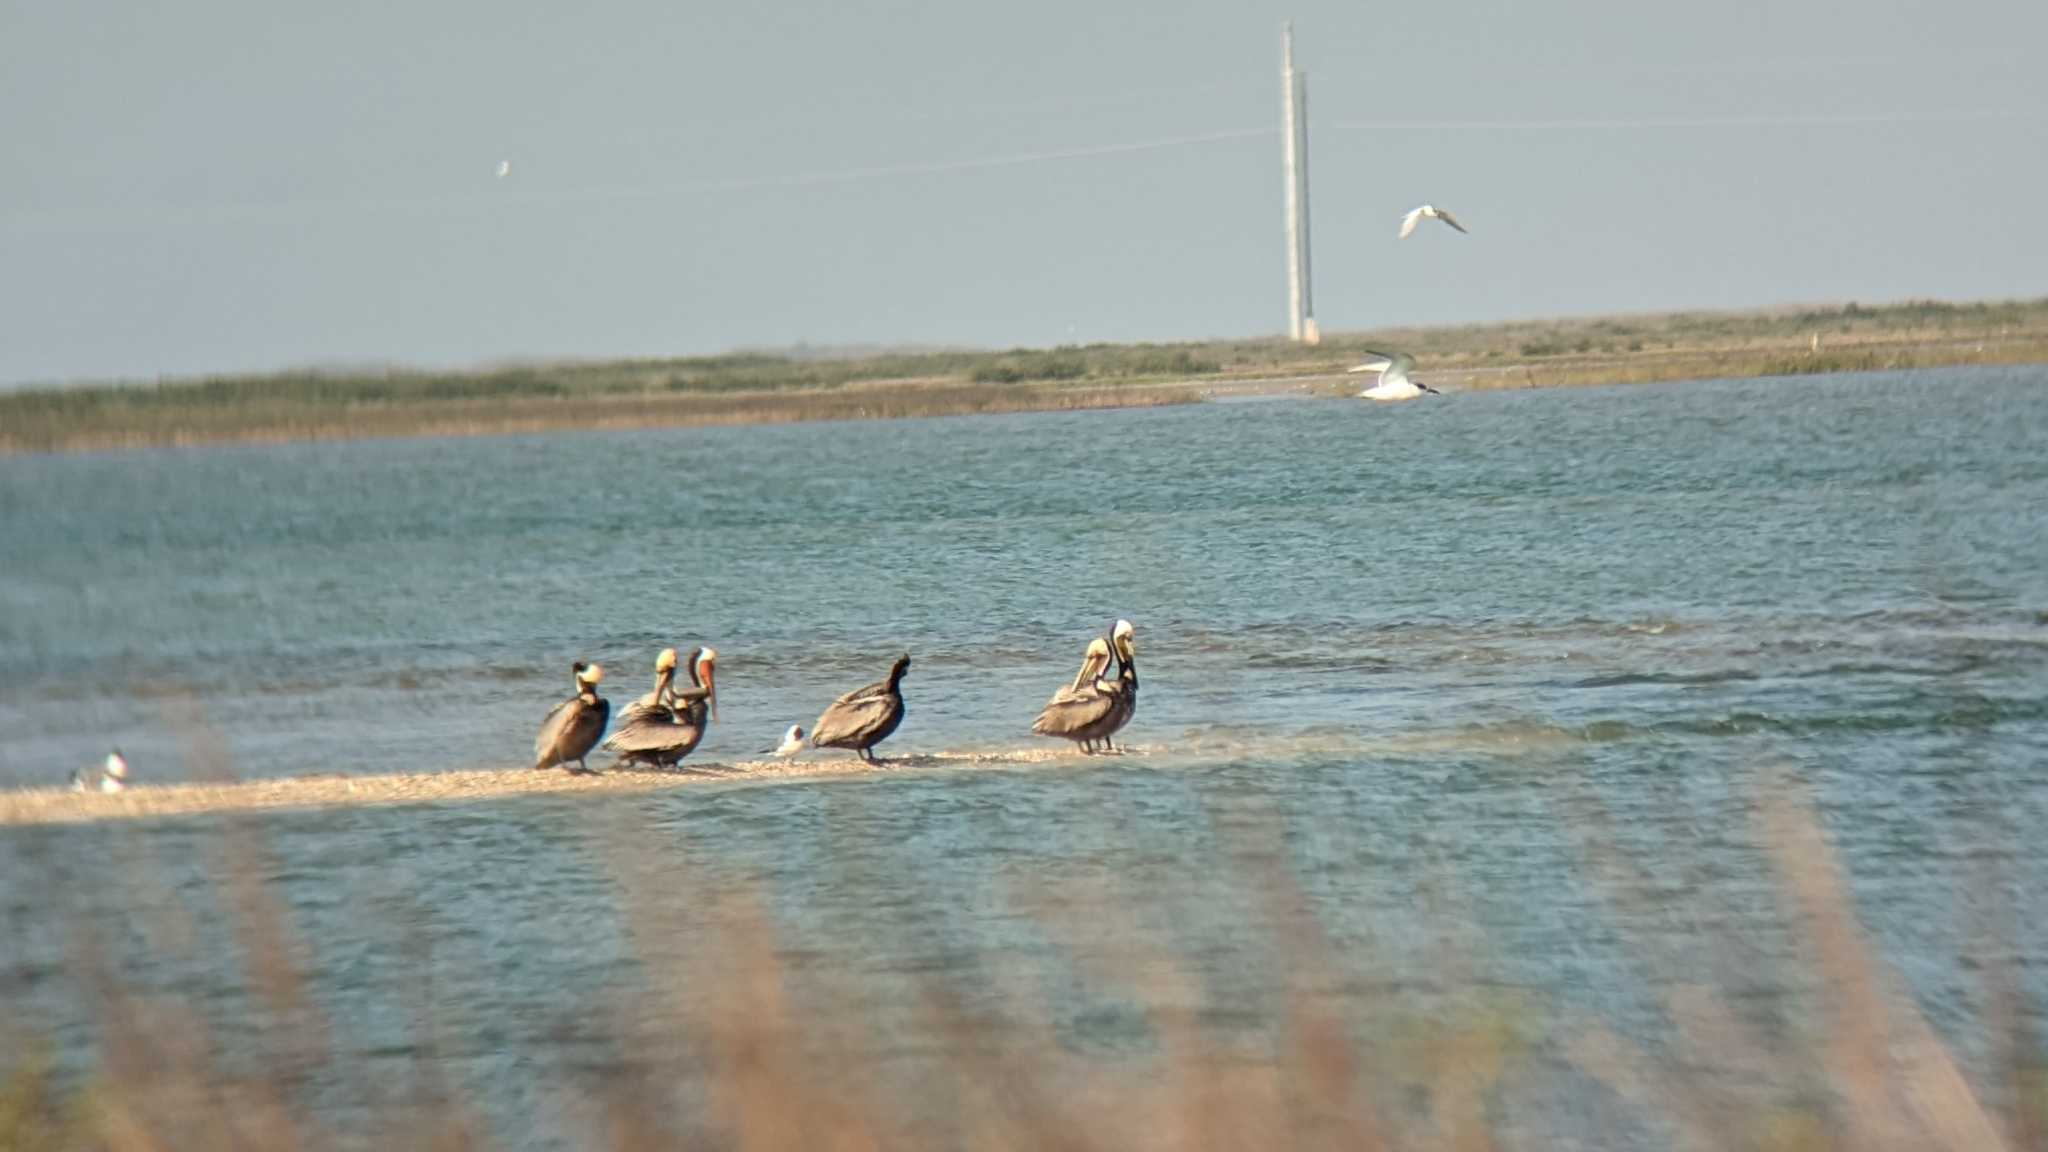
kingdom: Animalia
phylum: Chordata
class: Aves
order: Pelecaniformes
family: Pelecanidae
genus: Pelecanus
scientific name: Pelecanus occidentalis
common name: Brown pelican
